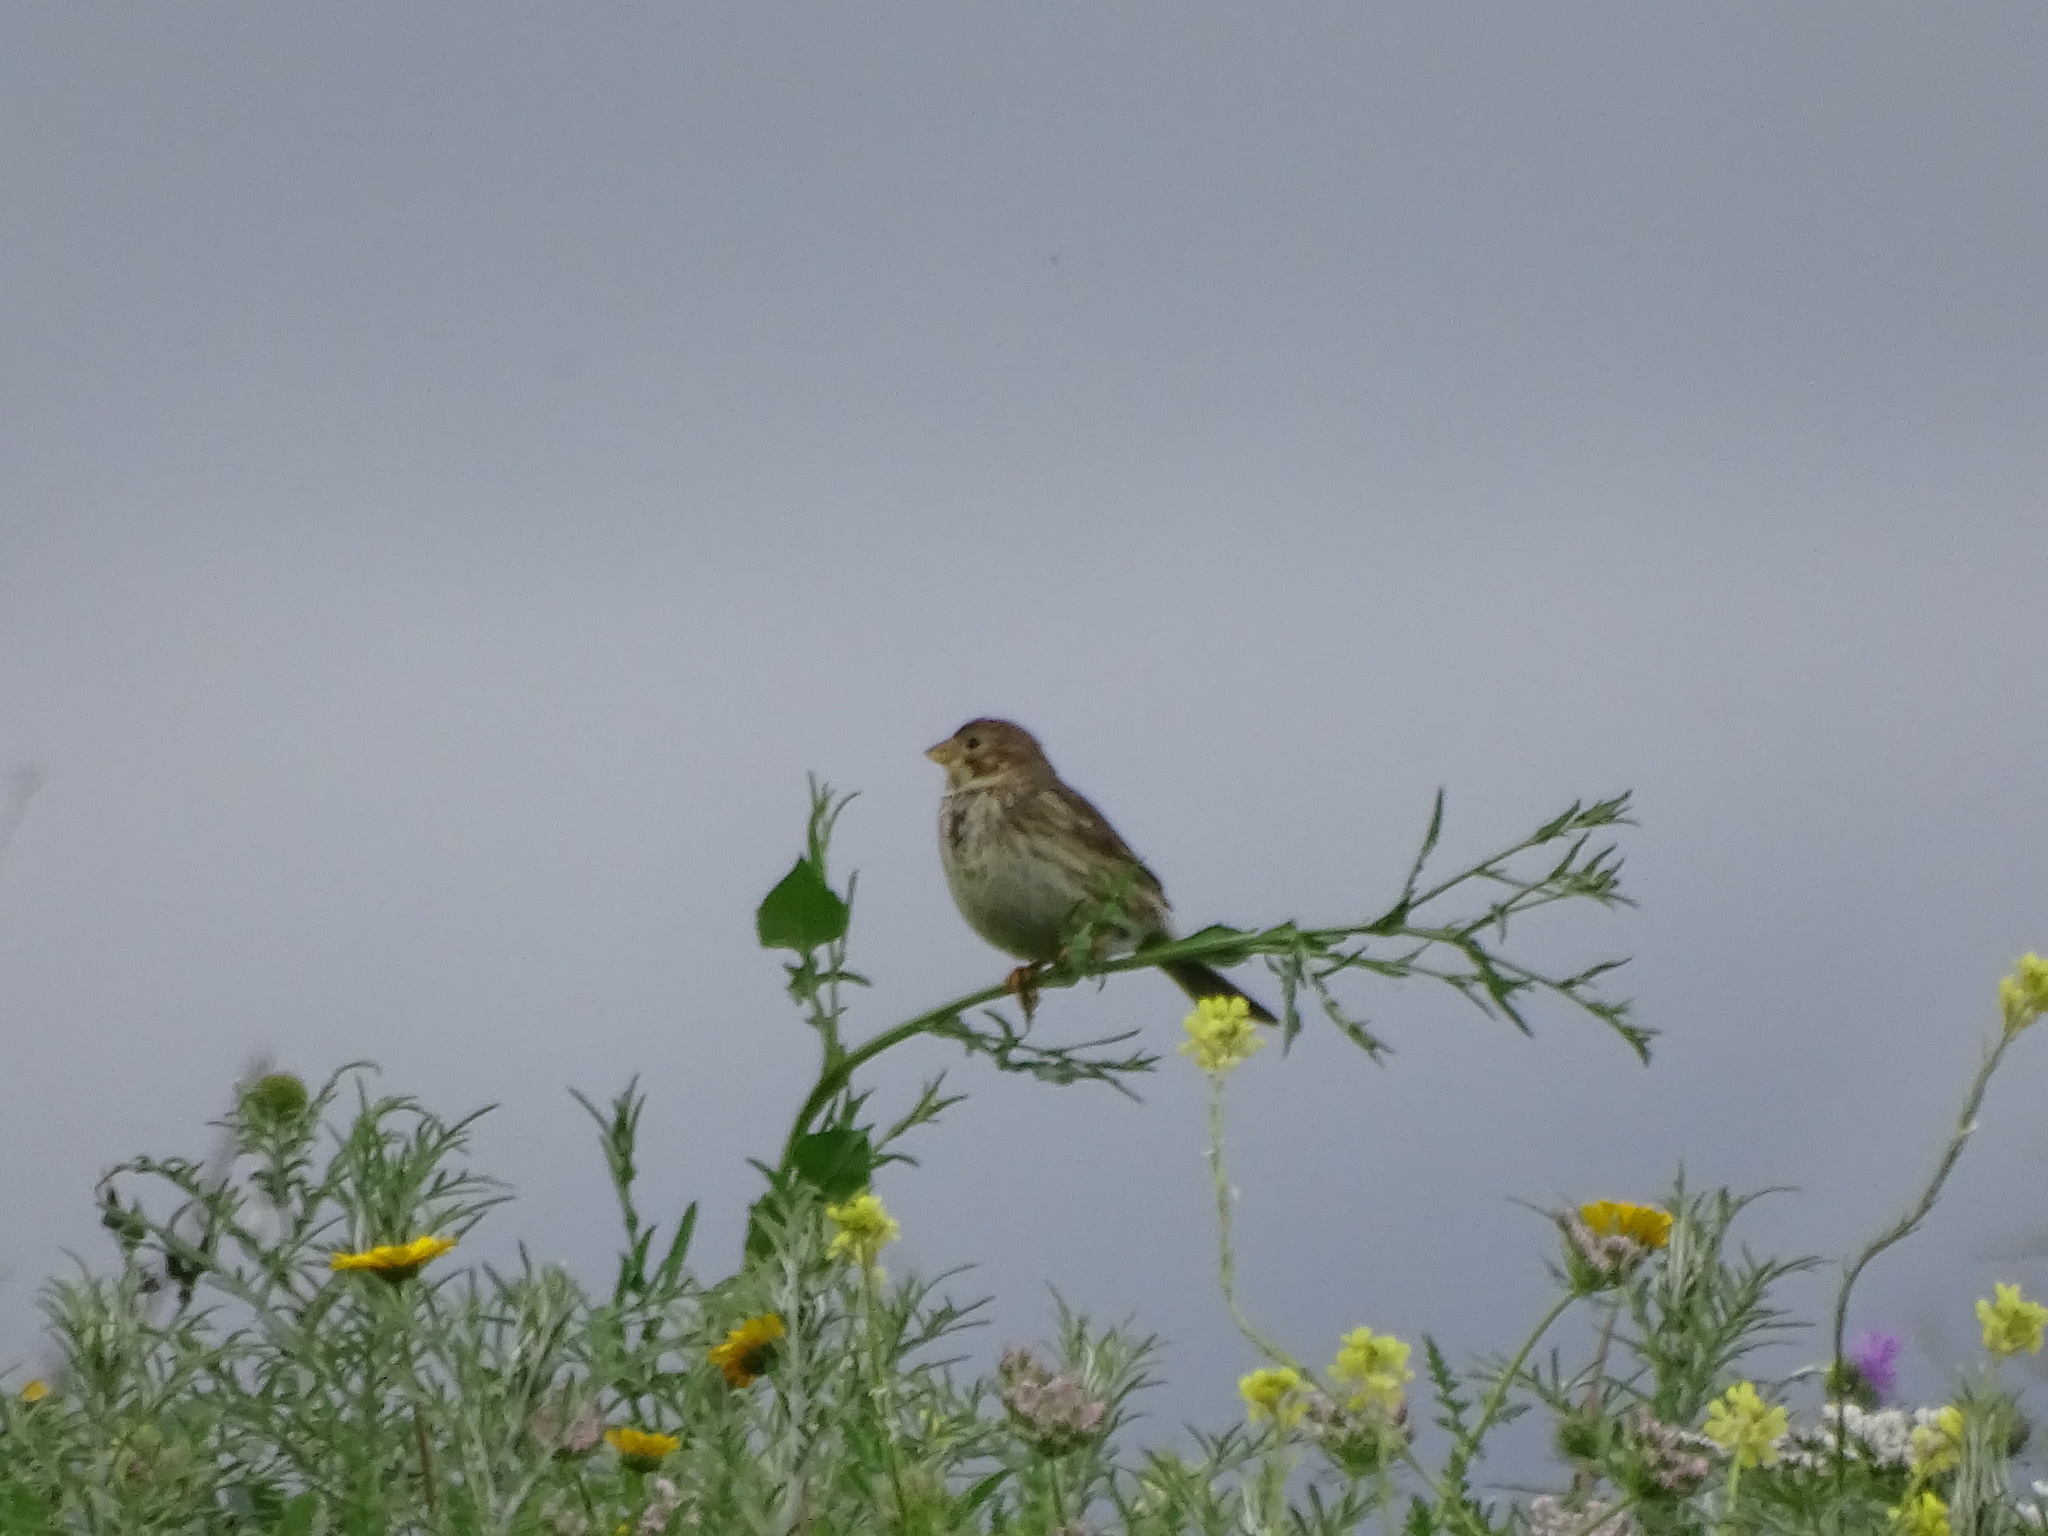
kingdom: Animalia
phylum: Chordata
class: Aves
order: Passeriformes
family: Emberizidae
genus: Emberiza
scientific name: Emberiza calandra
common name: Corn bunting
